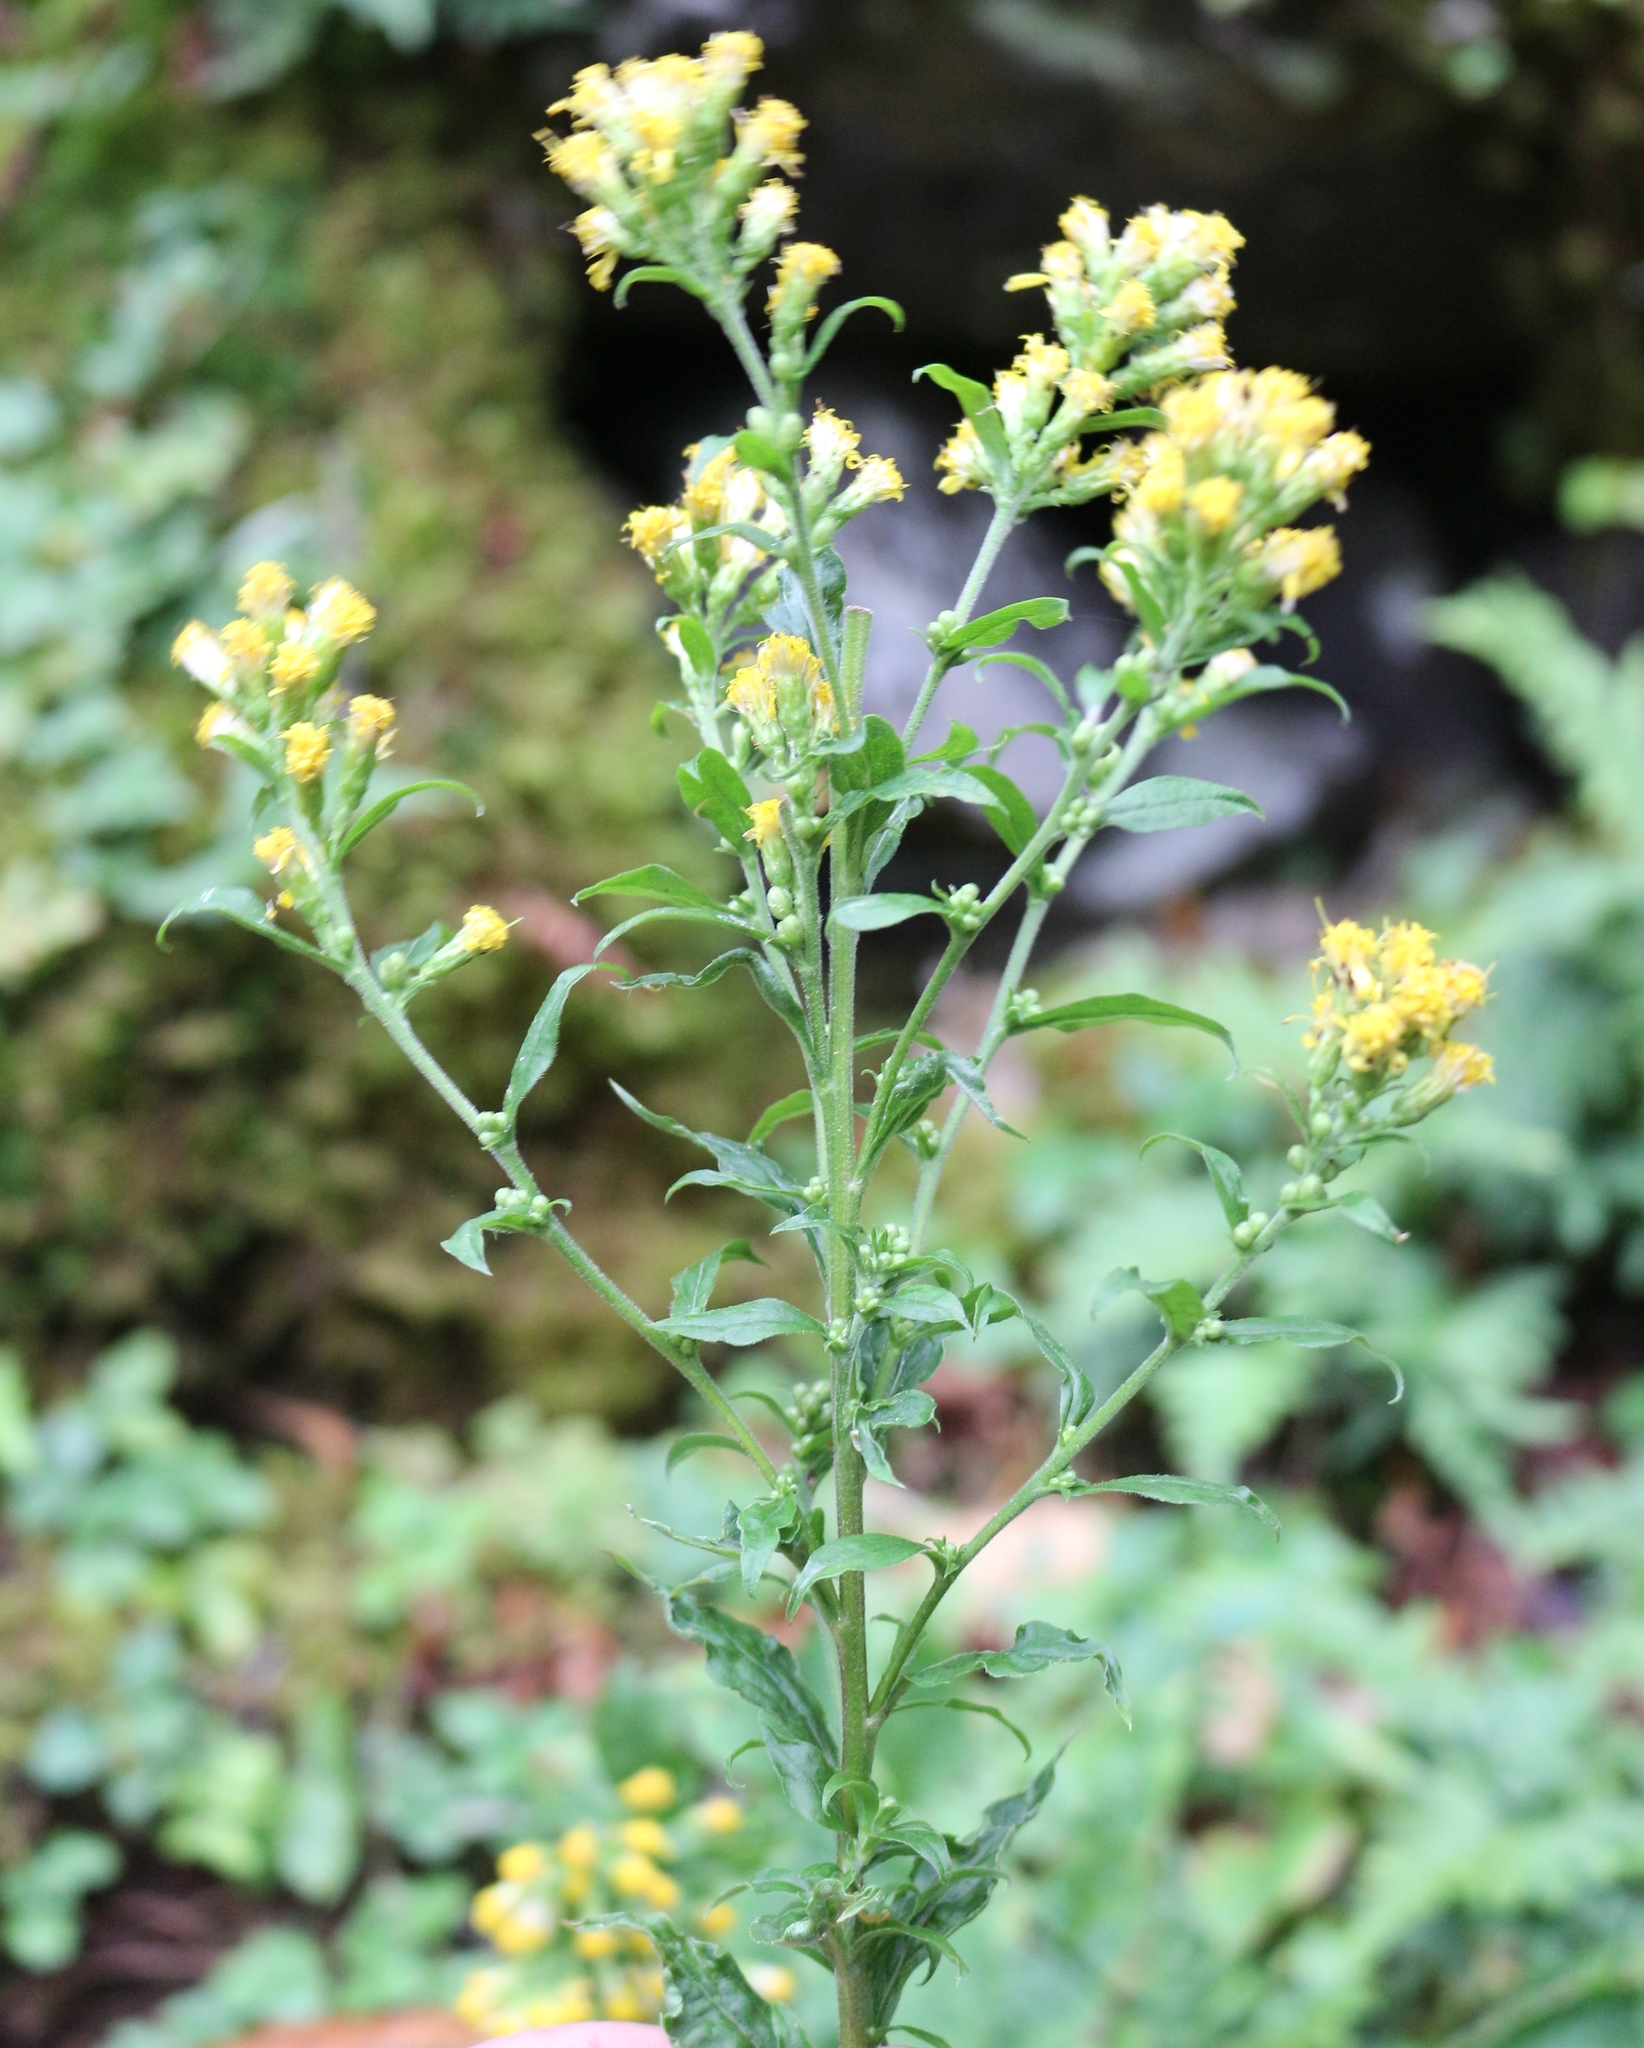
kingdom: Plantae
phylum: Tracheophyta
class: Magnoliopsida
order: Asterales
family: Asteraceae
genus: Solidago
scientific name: Solidago virgaurea
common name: Goldenrod
